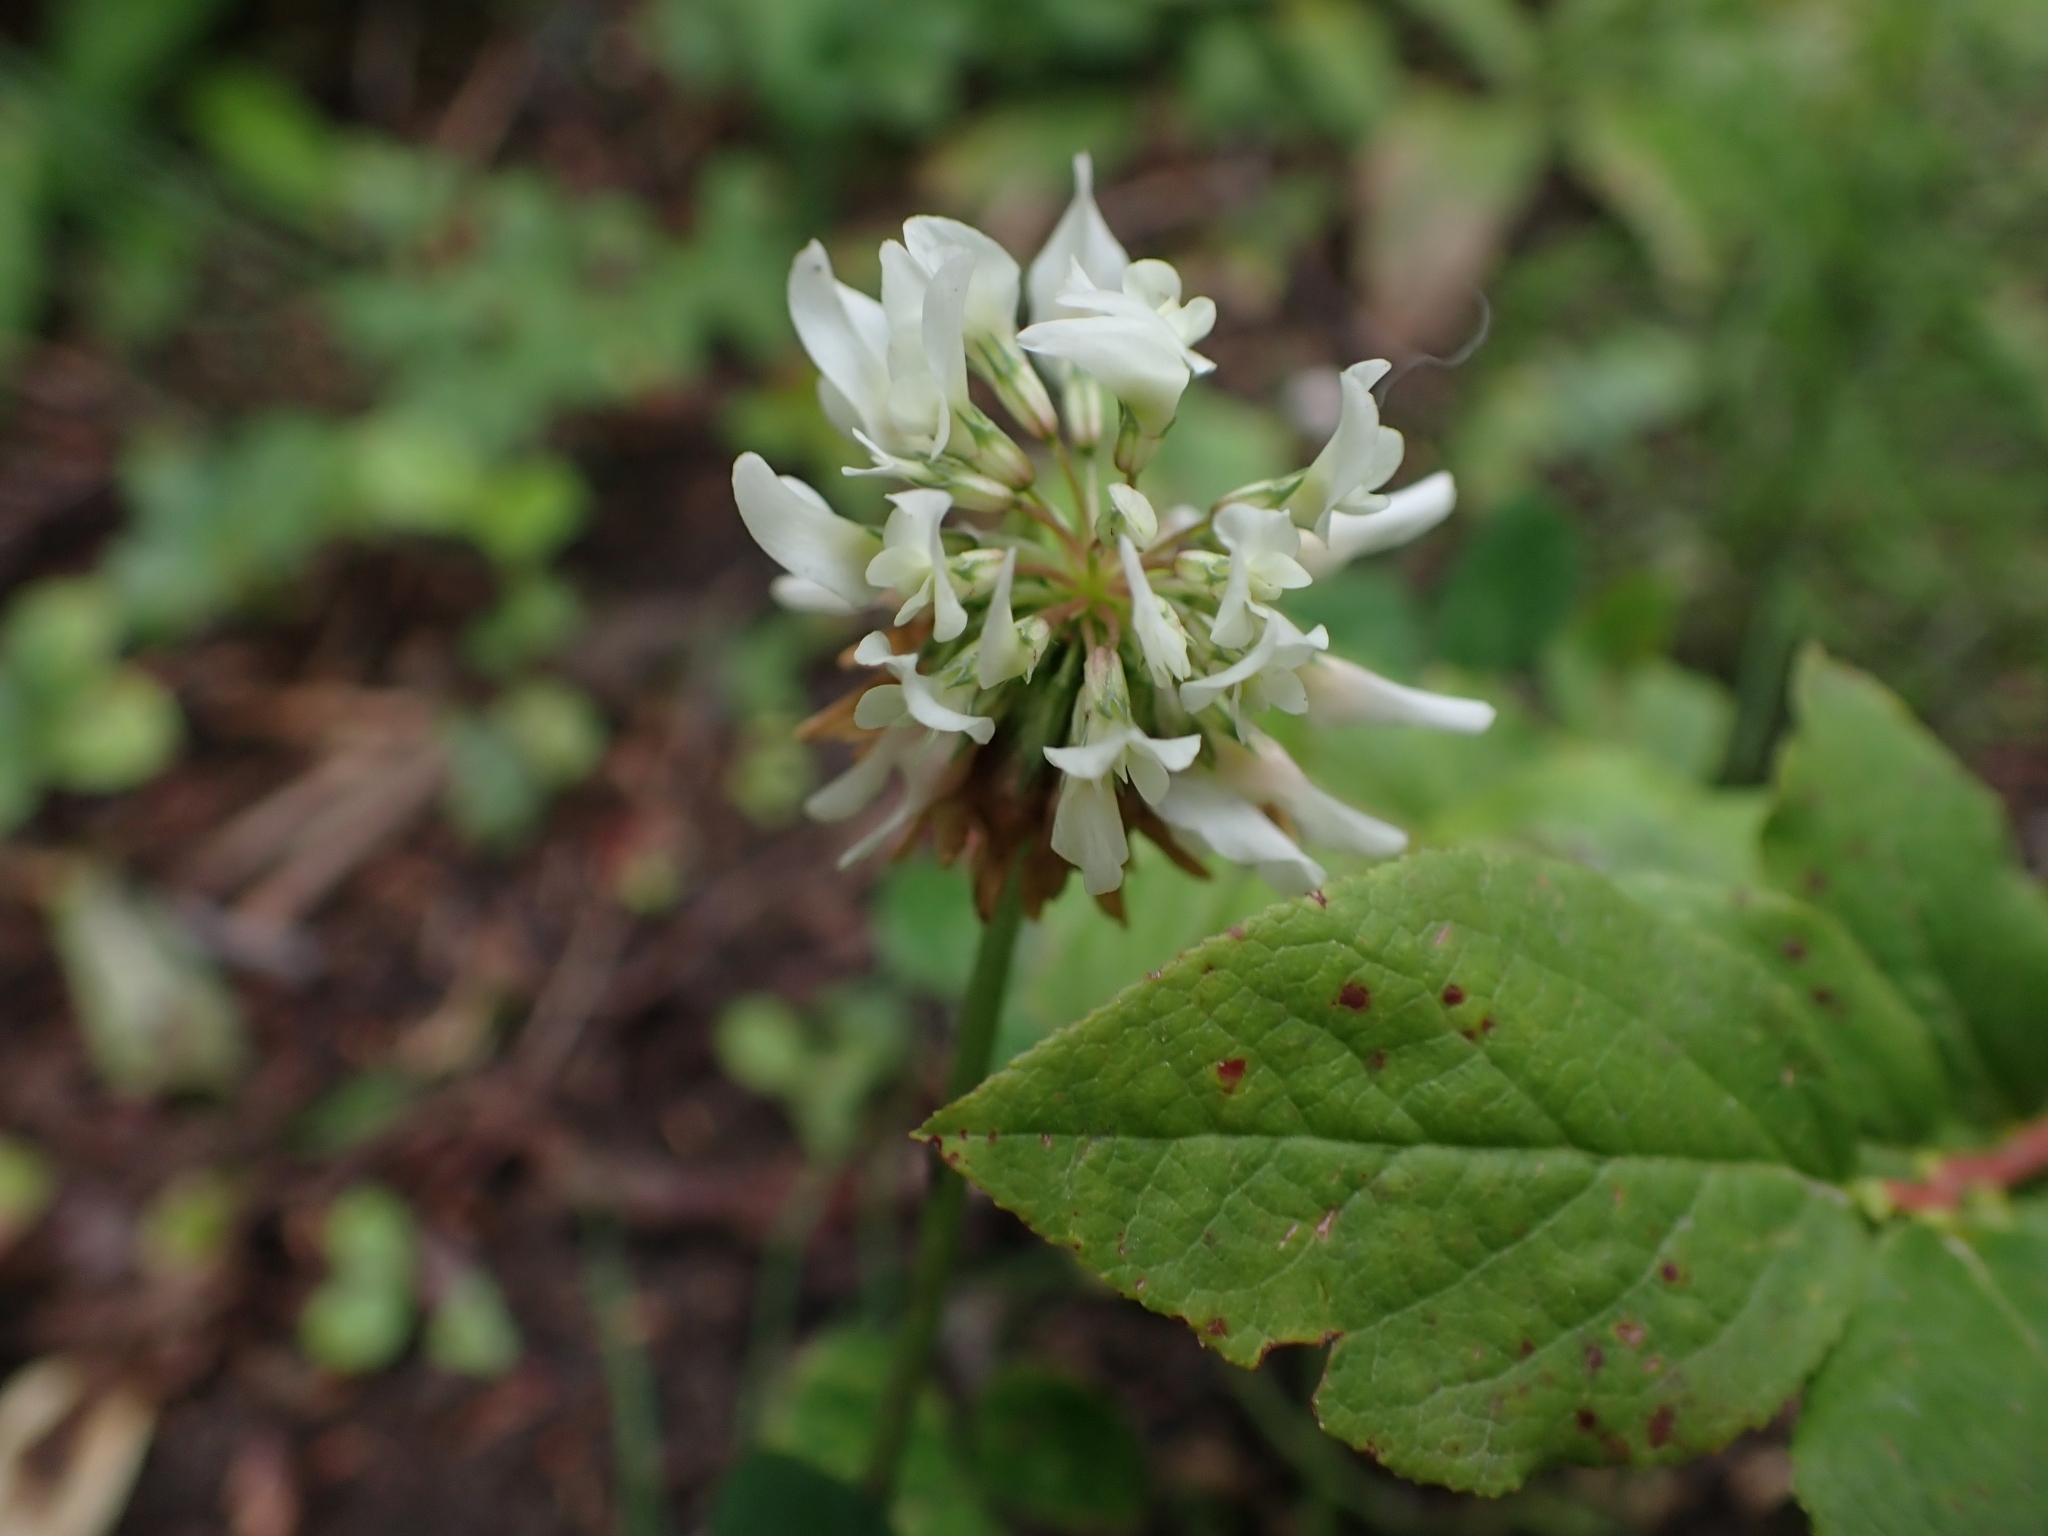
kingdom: Plantae
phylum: Tracheophyta
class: Magnoliopsida
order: Fabales
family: Fabaceae
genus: Trifolium
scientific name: Trifolium repens
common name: White clover
